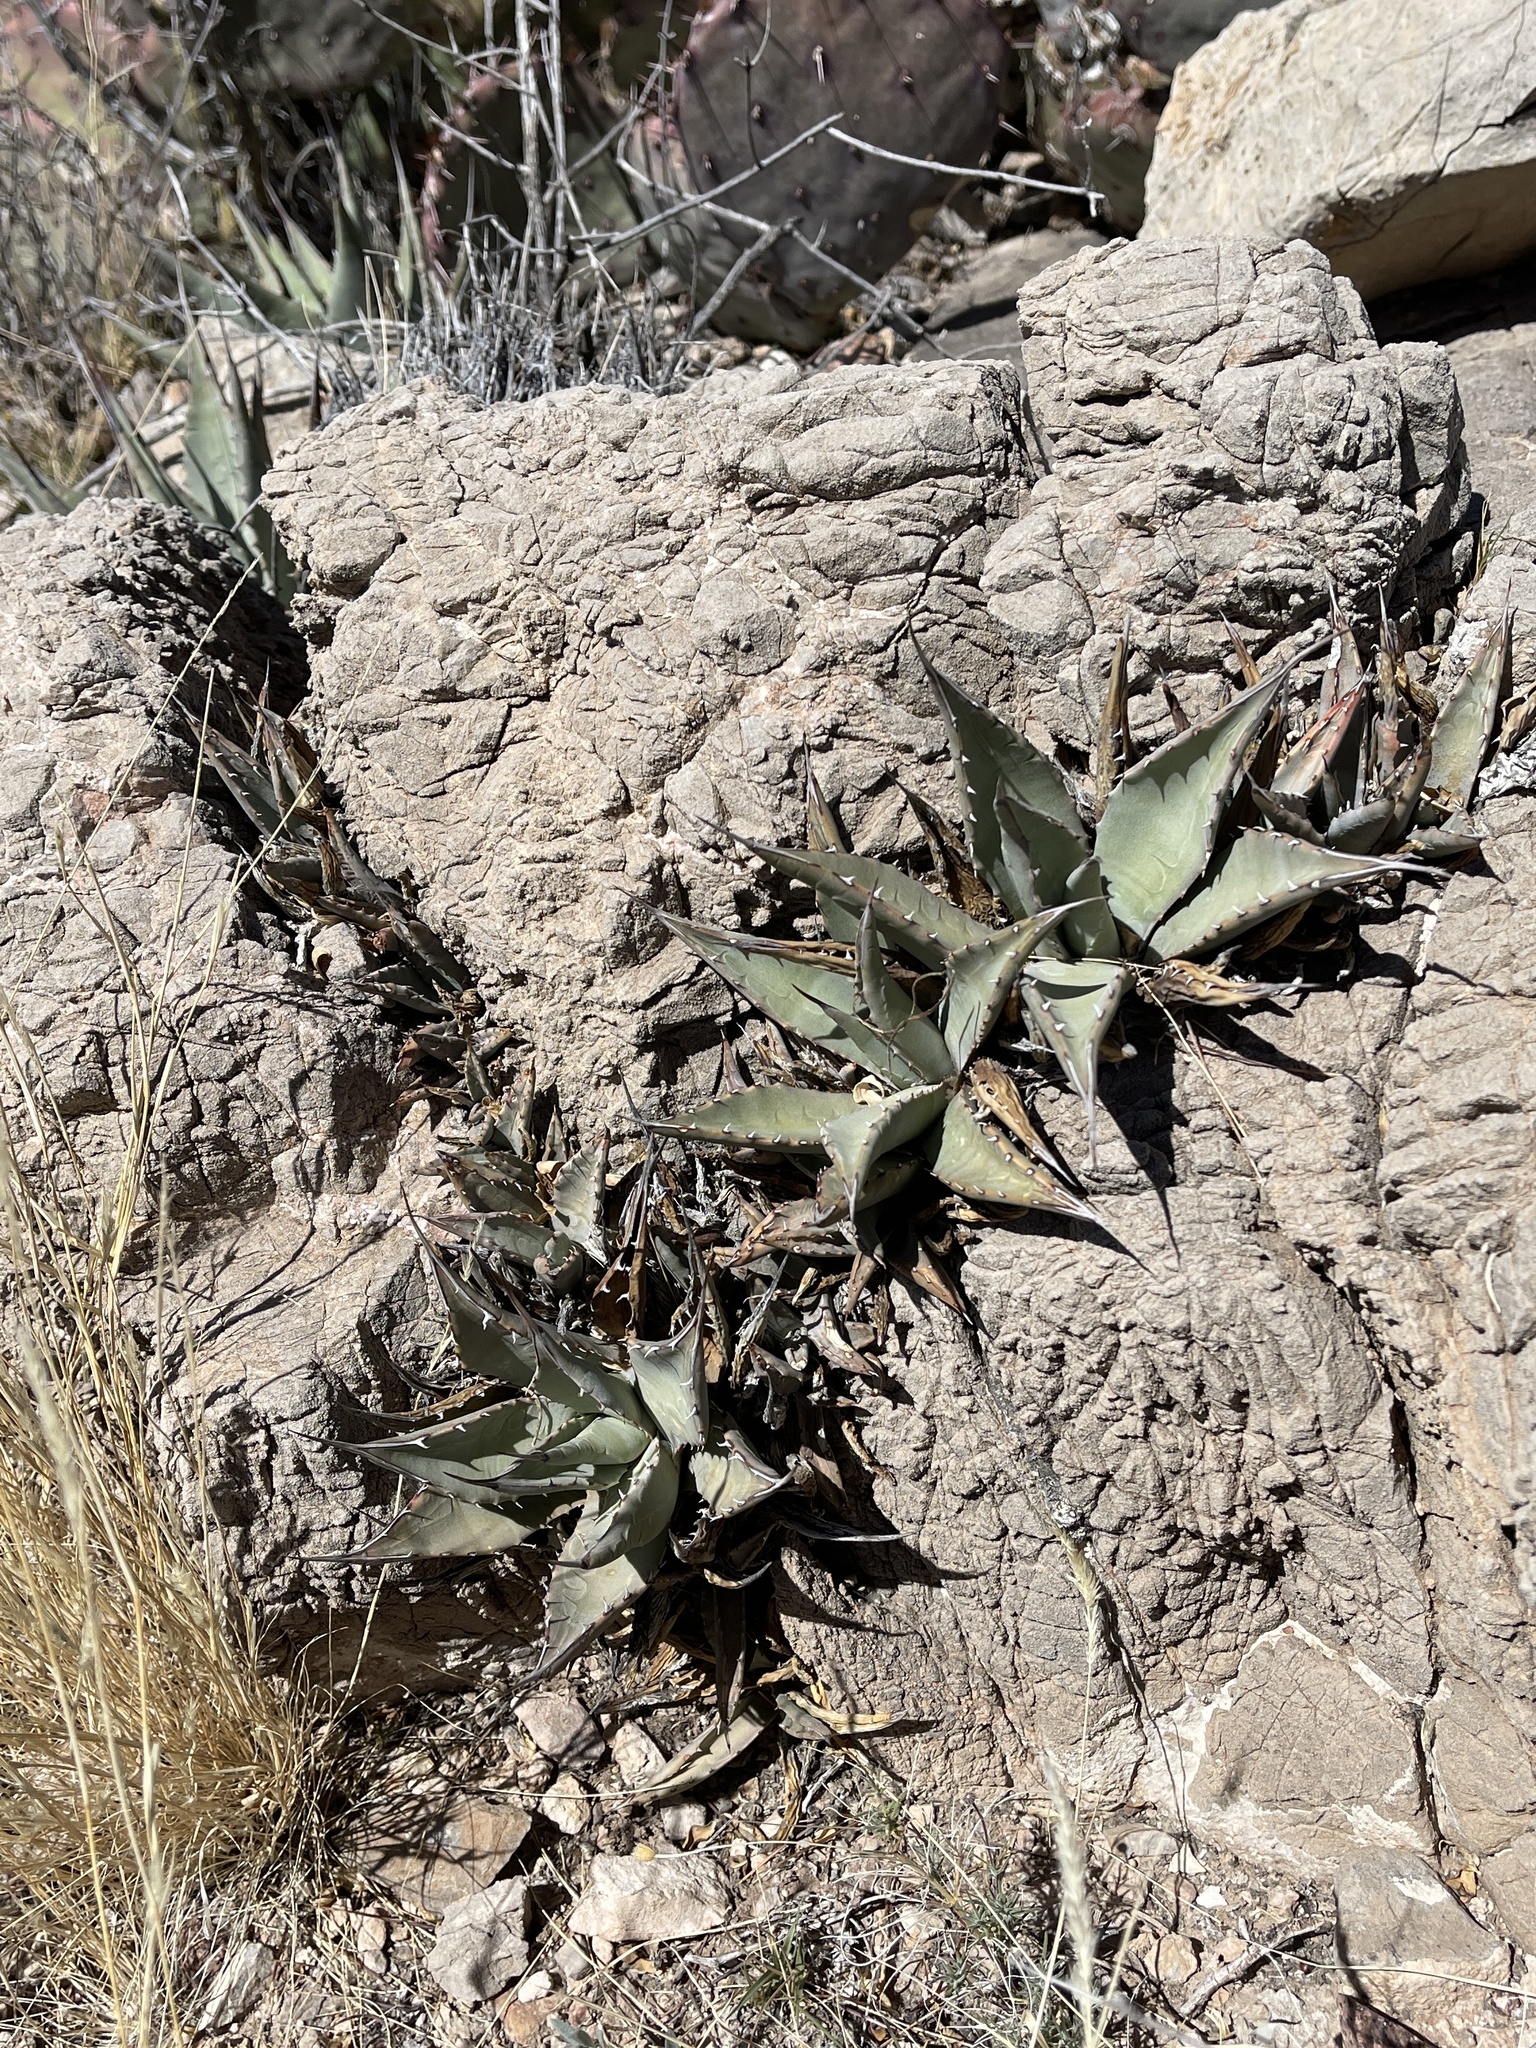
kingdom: Plantae
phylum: Tracheophyta
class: Liliopsida
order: Asparagales
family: Asparagaceae
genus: Agave
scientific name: Agave parryi
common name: Parry's agave
